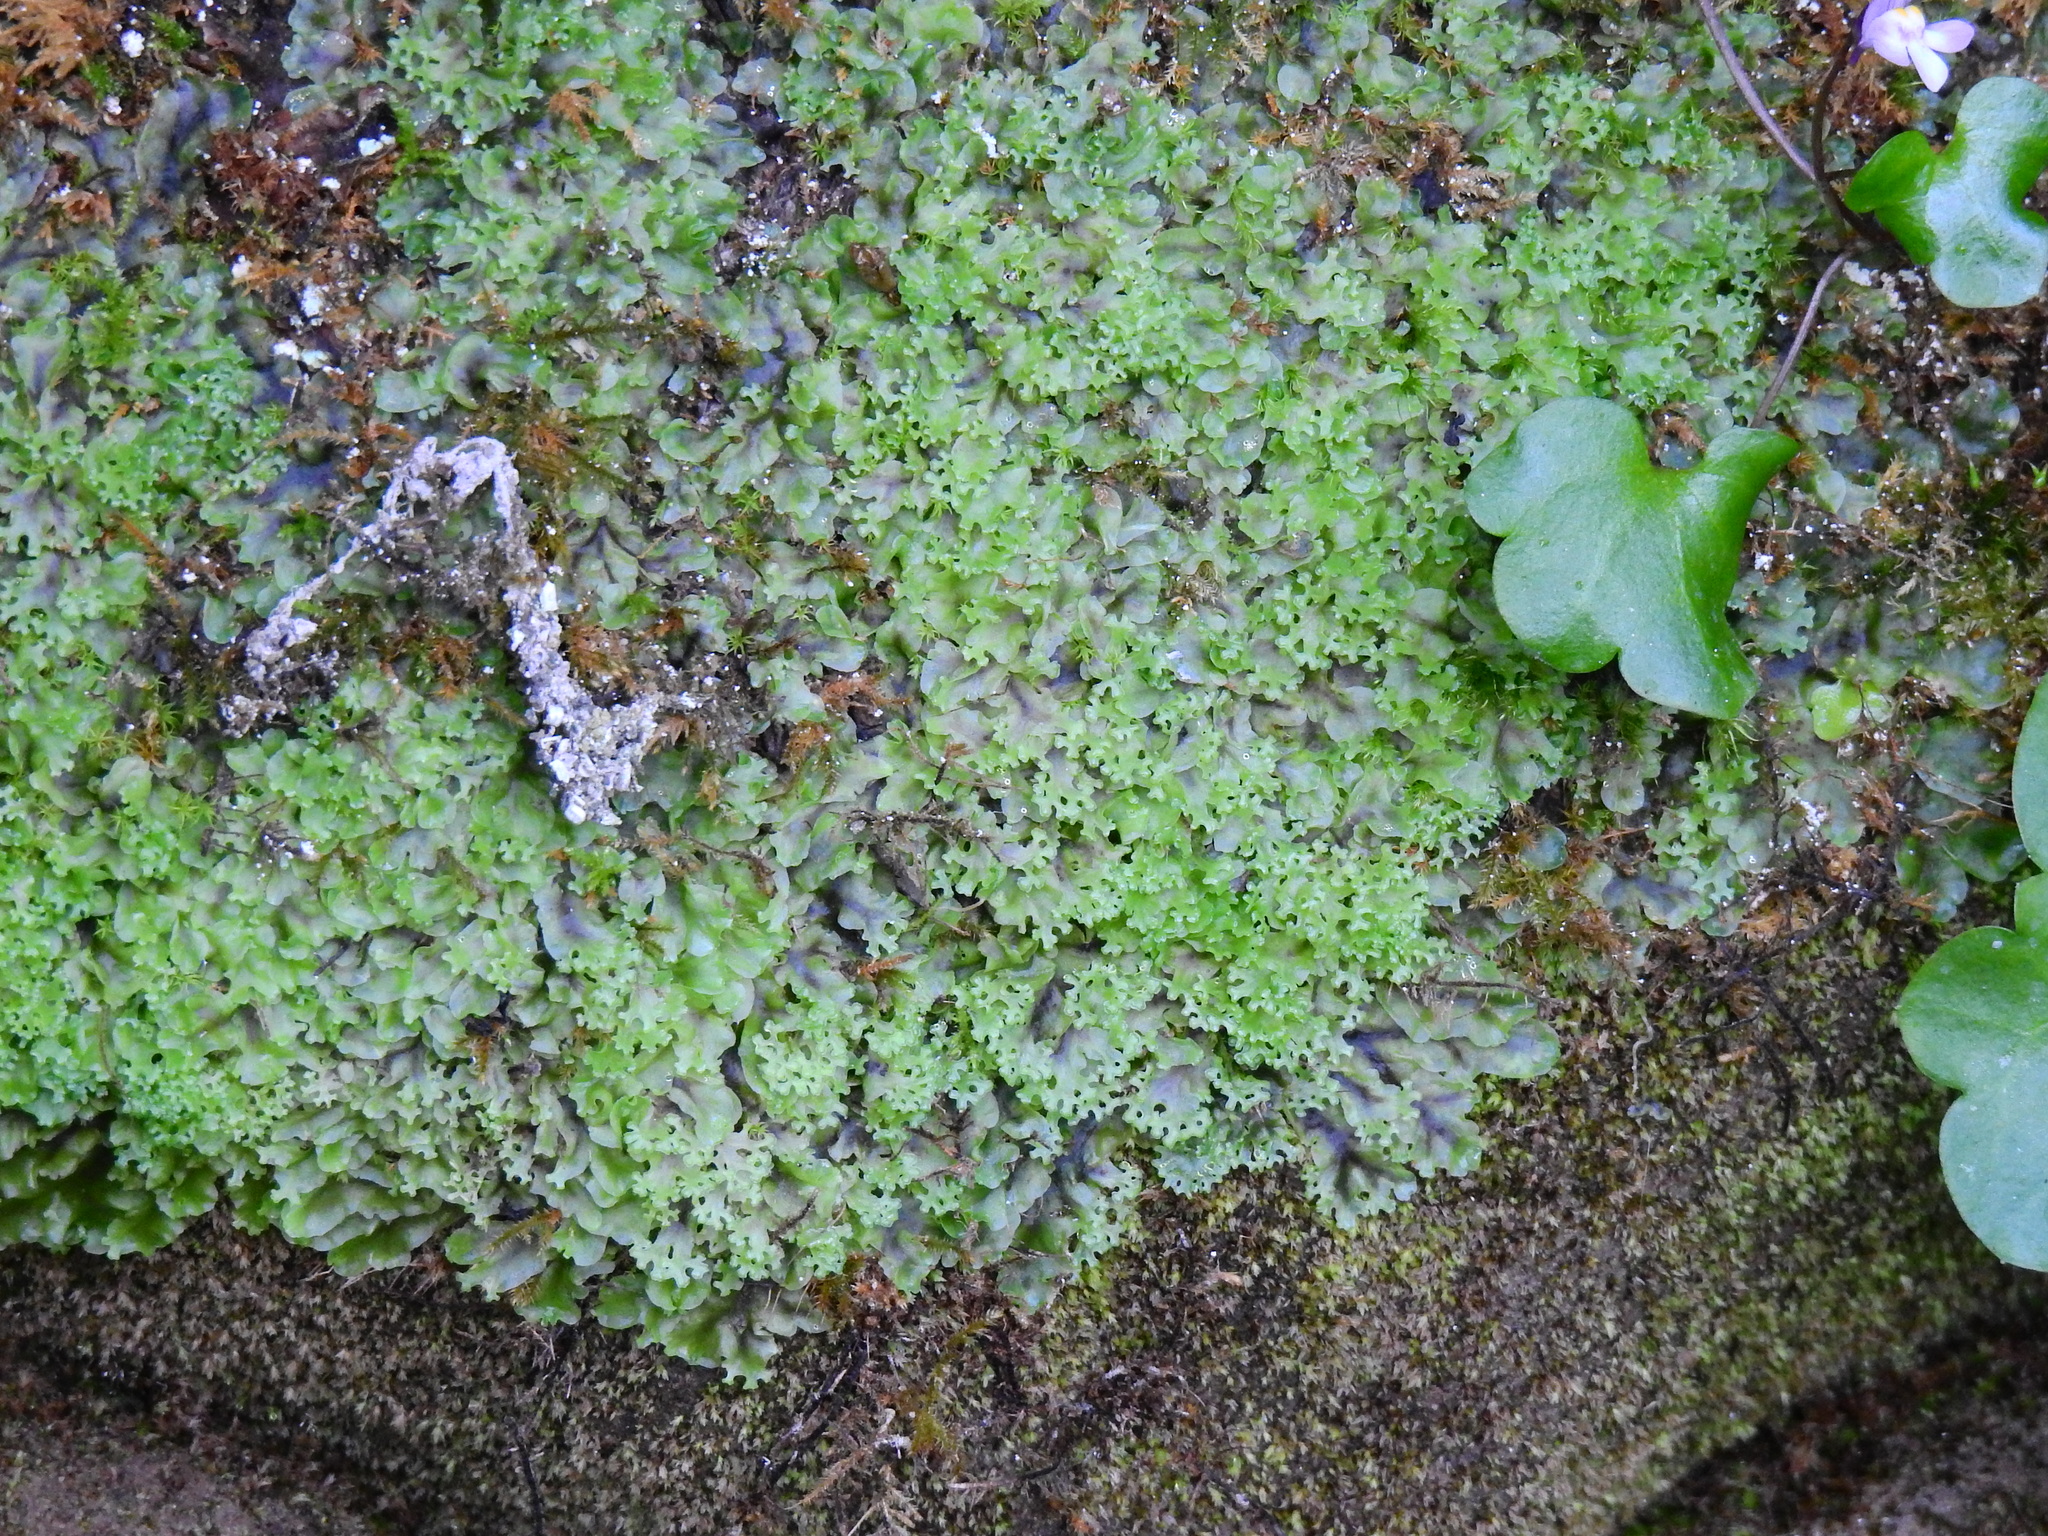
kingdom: Plantae
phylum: Marchantiophyta
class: Jungermanniopsida
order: Pelliales
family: Pelliaceae
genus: Apopellia
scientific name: Apopellia endiviifolia
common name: Endive pellia
